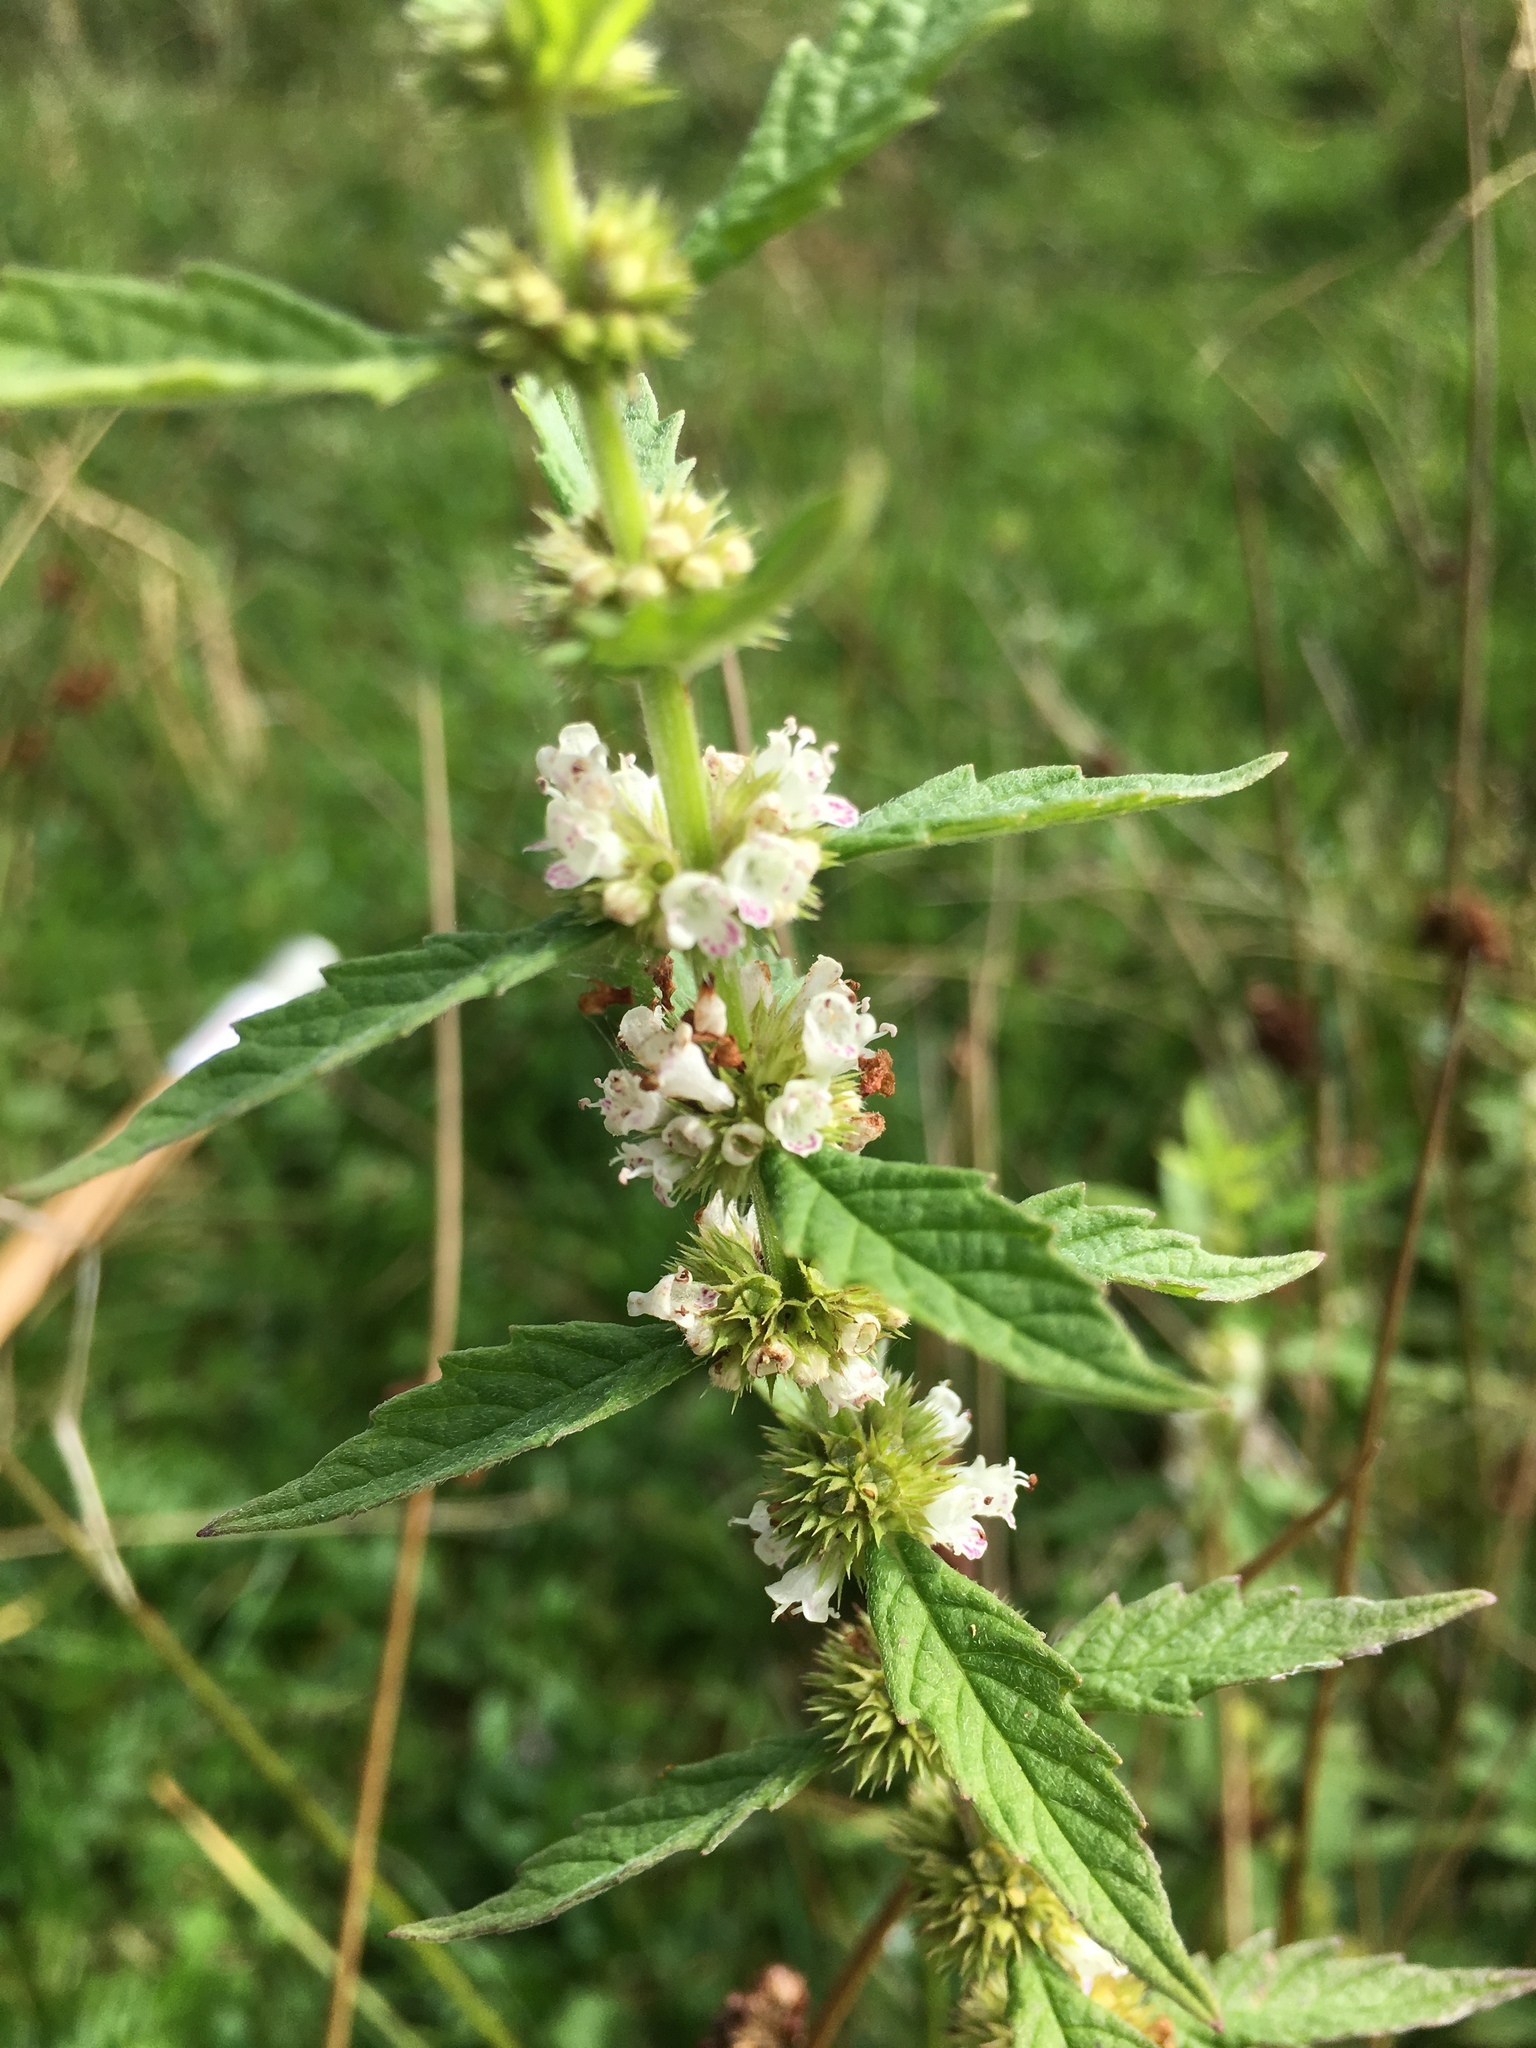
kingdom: Plantae
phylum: Tracheophyta
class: Magnoliopsida
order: Lamiales
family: Lamiaceae
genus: Lycopus
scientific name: Lycopus europaeus
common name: European bugleweed
